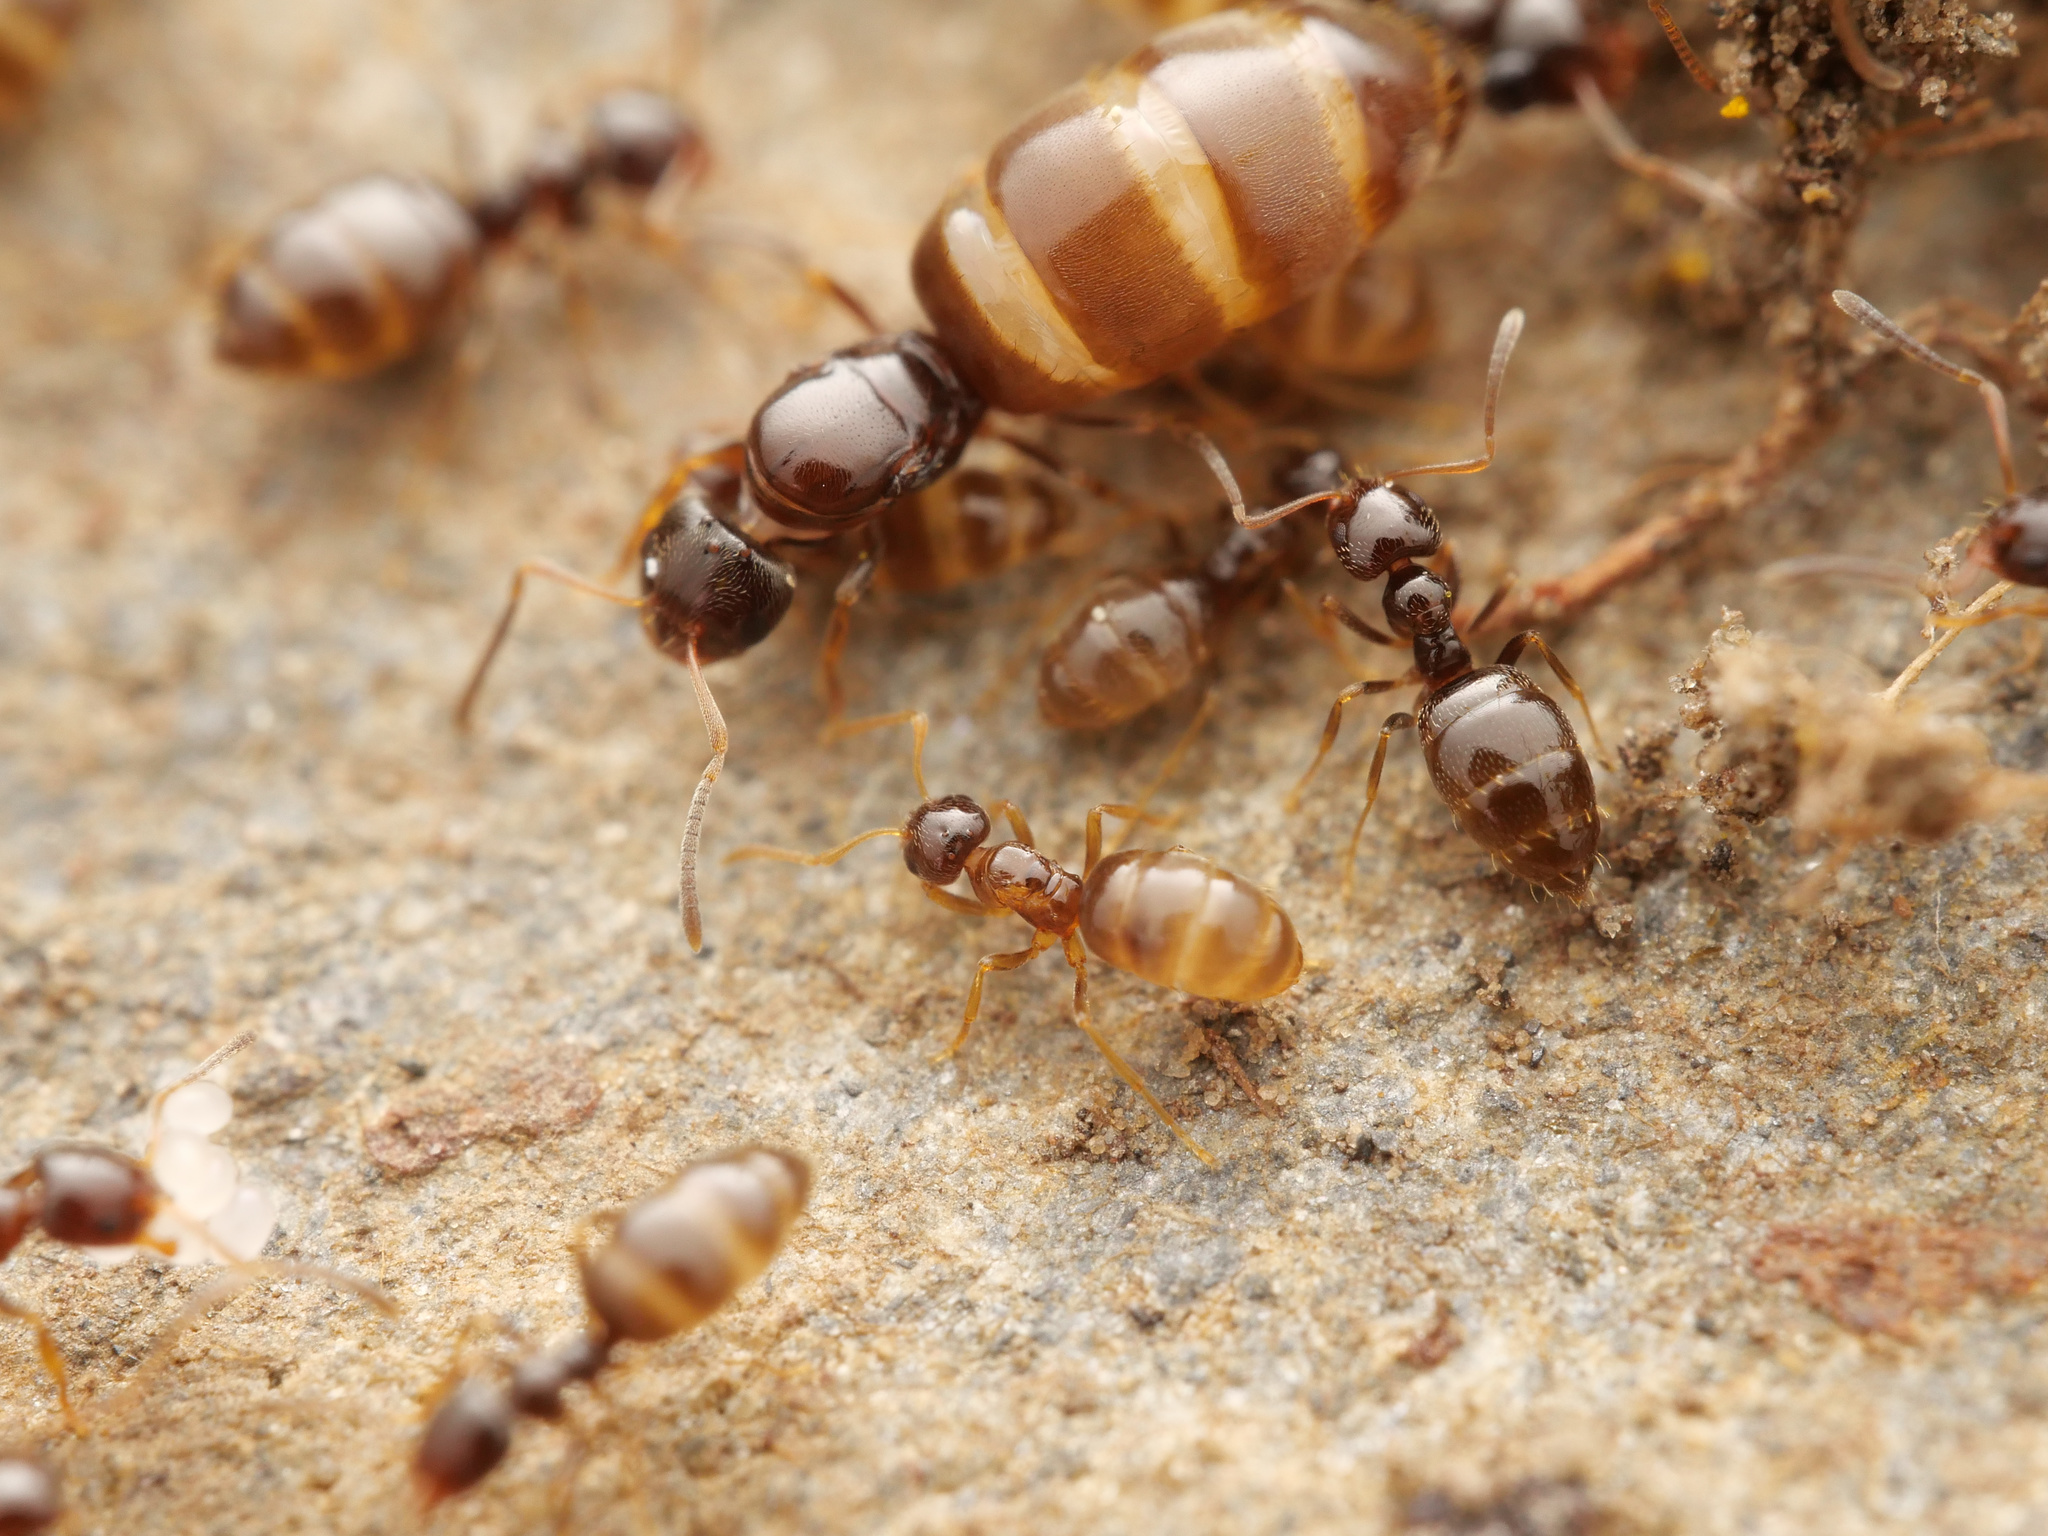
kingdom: Animalia
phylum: Arthropoda
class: Insecta
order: Hymenoptera
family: Formicidae
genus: Plagiolepis
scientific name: Plagiolepis xene
